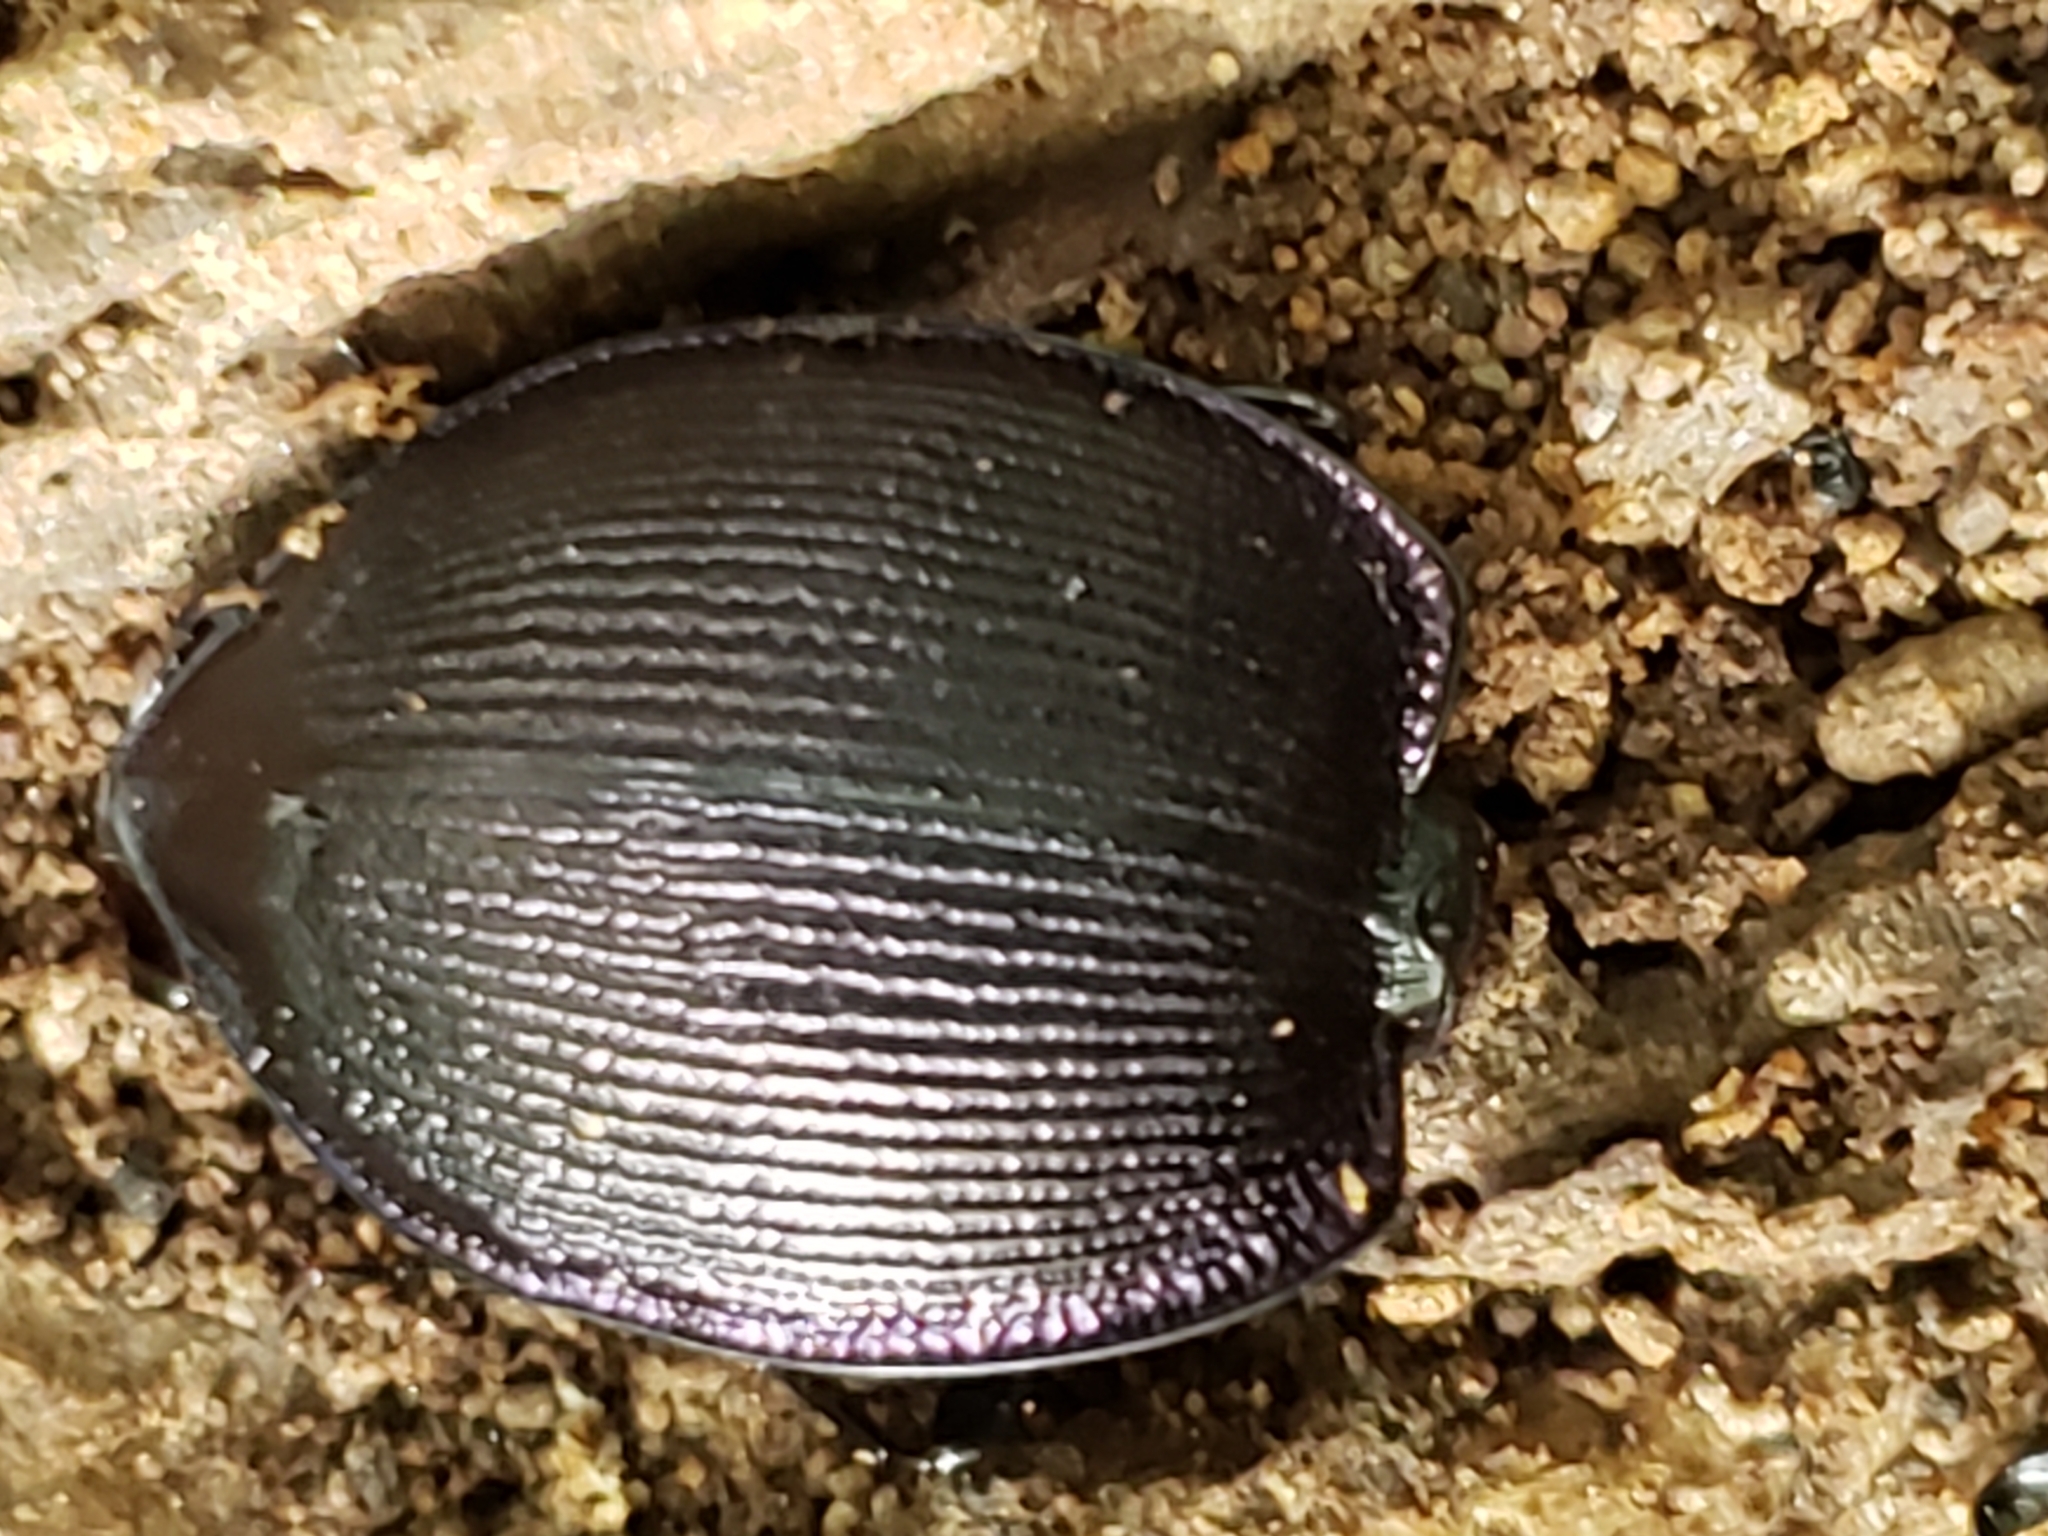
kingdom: Animalia
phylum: Arthropoda
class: Insecta
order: Coleoptera
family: Carabidae
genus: Scaphinotus
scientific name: Scaphinotus unicolor
